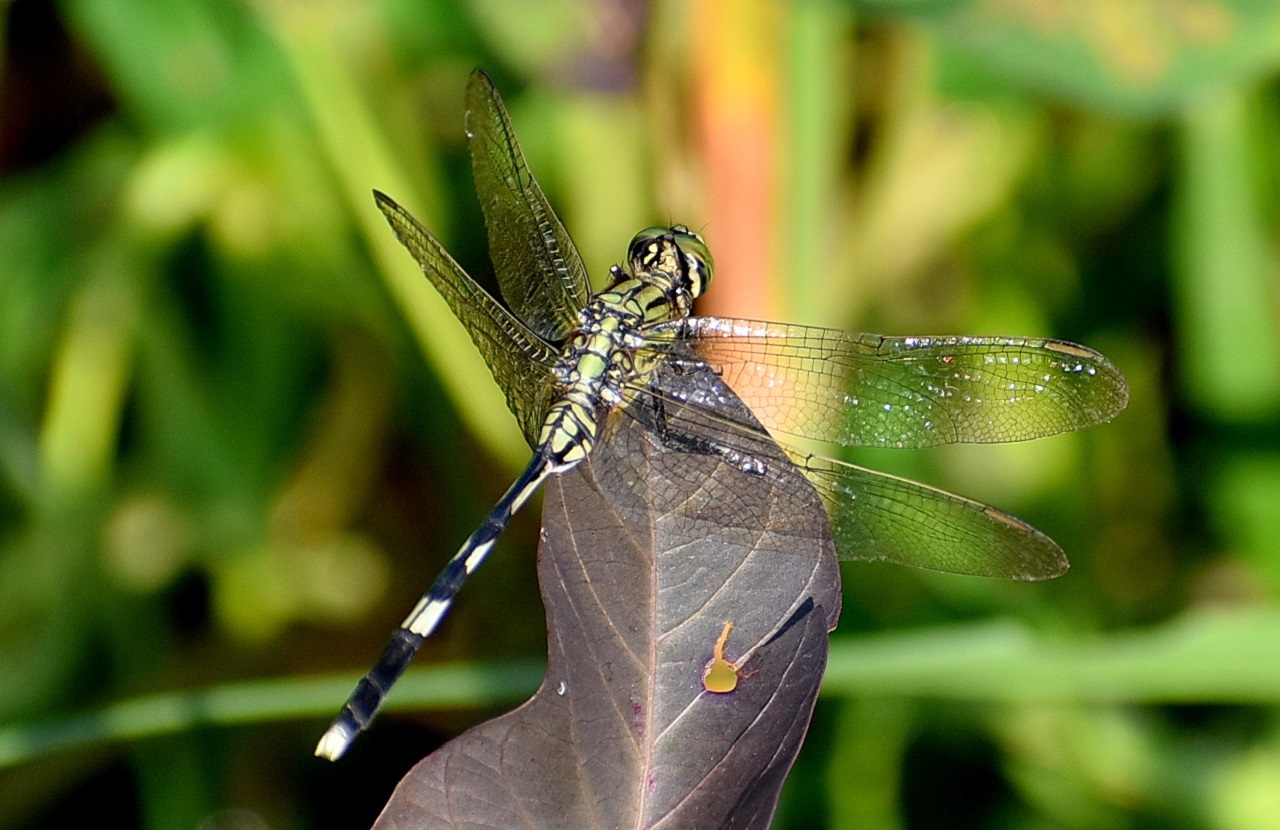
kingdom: Animalia
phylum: Arthropoda
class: Insecta
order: Odonata
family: Libellulidae
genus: Orthetrum
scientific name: Orthetrum sabina
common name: Slender skimmer
